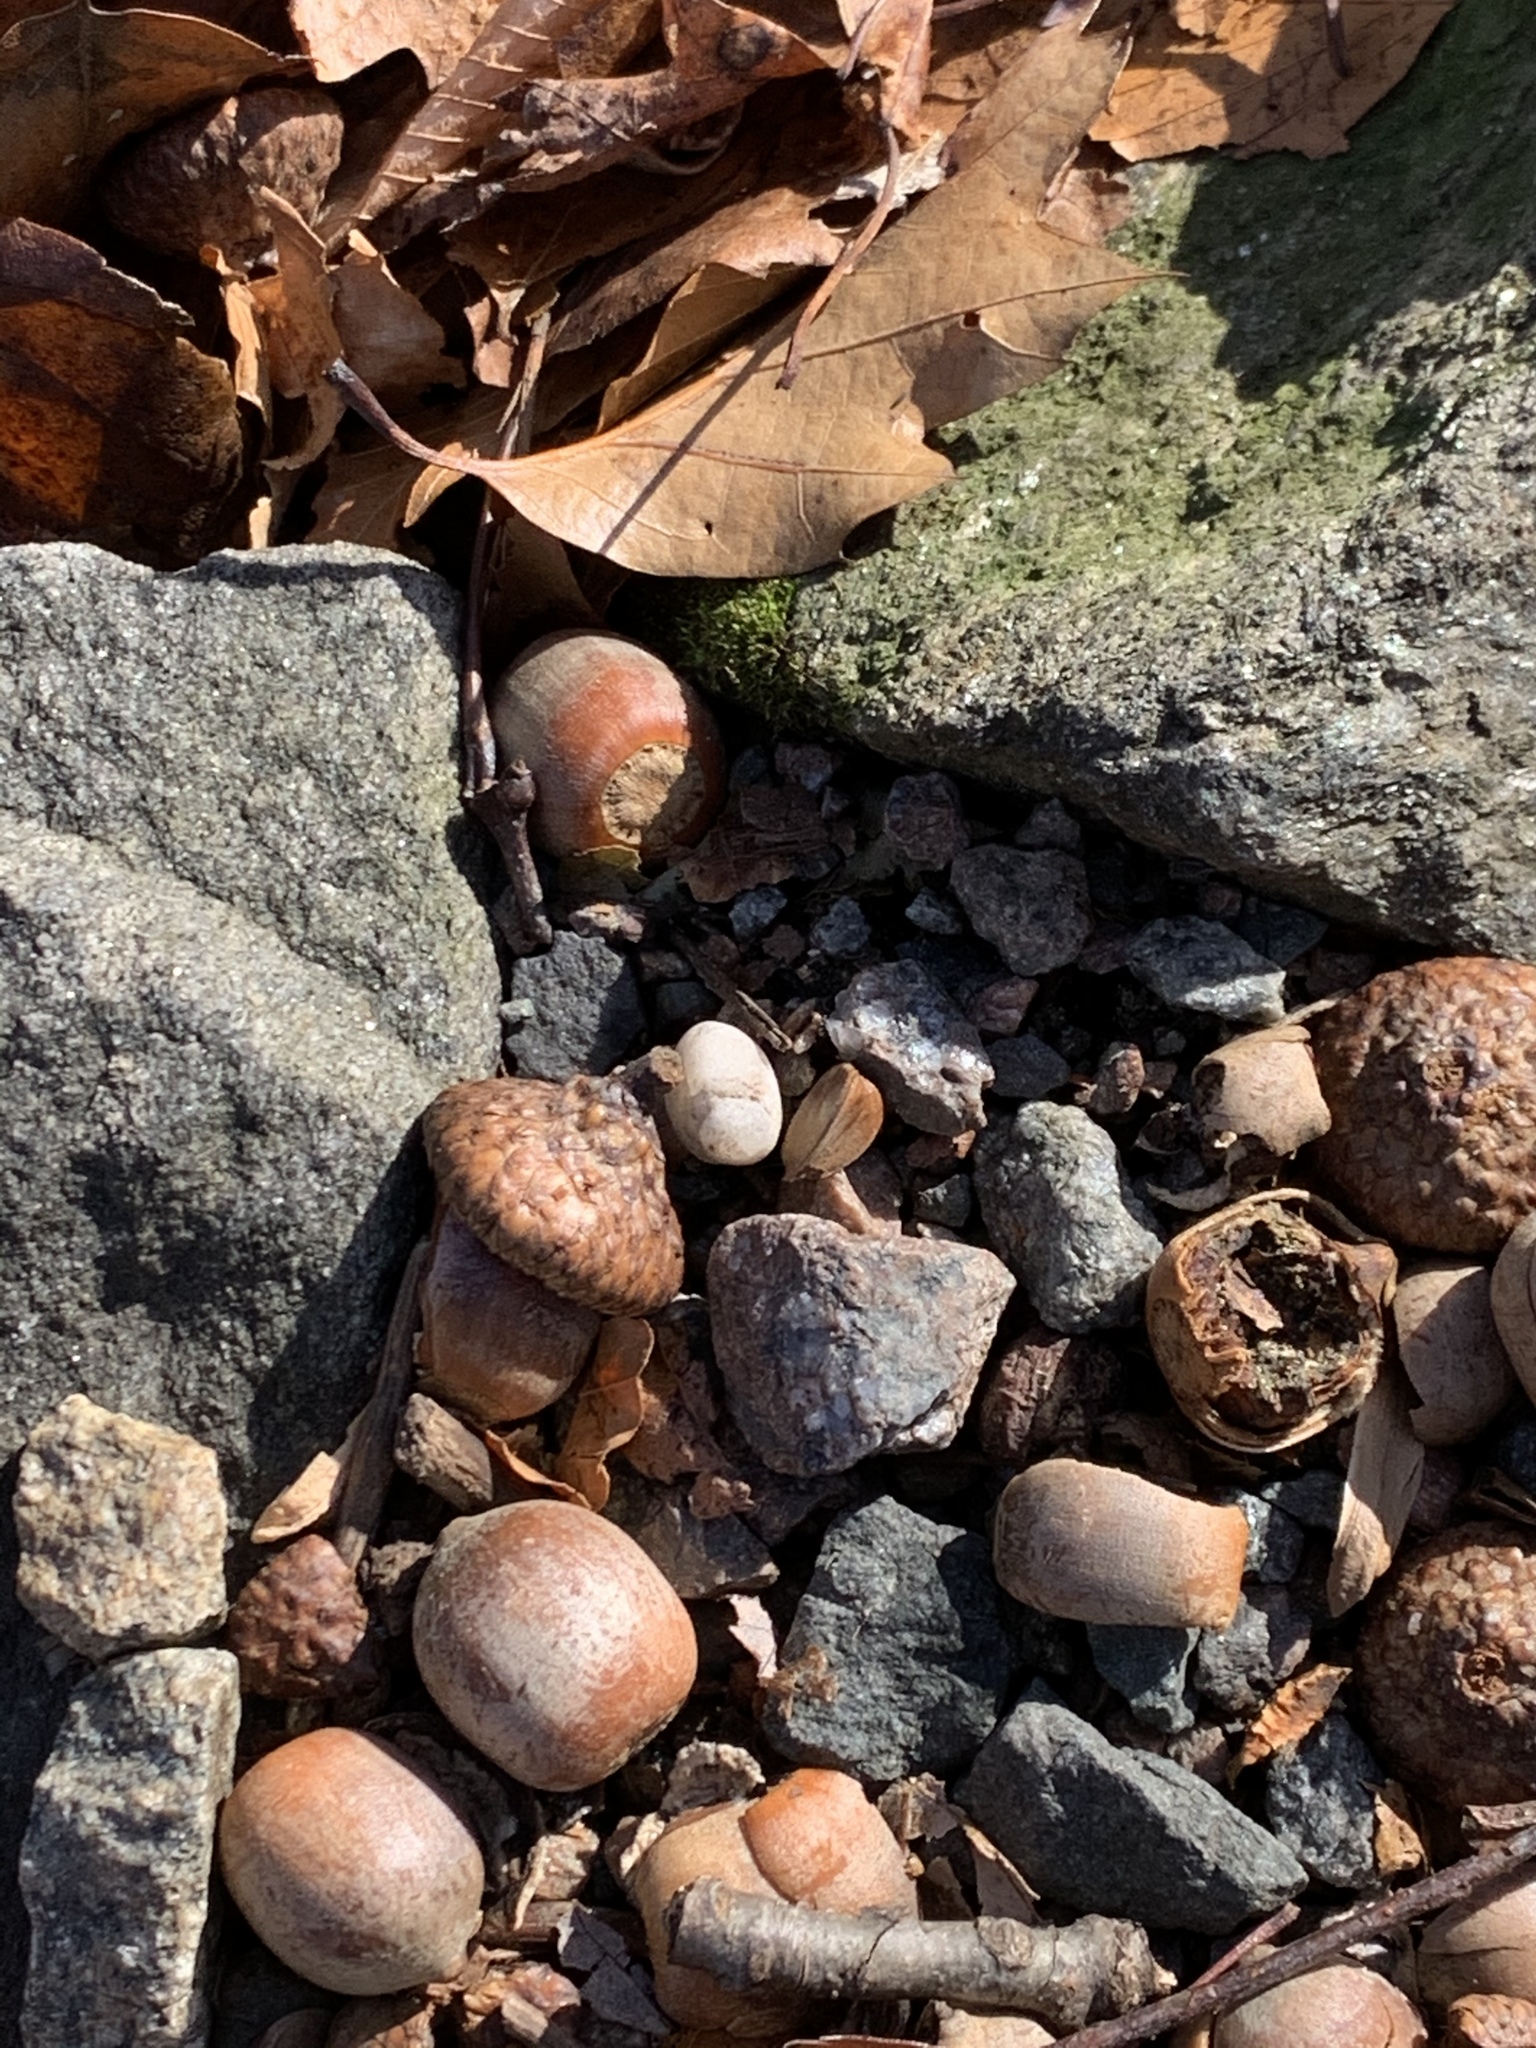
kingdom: Plantae
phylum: Tracheophyta
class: Magnoliopsida
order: Fagales
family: Fagaceae
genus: Quercus
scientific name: Quercus rubra
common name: Red oak
